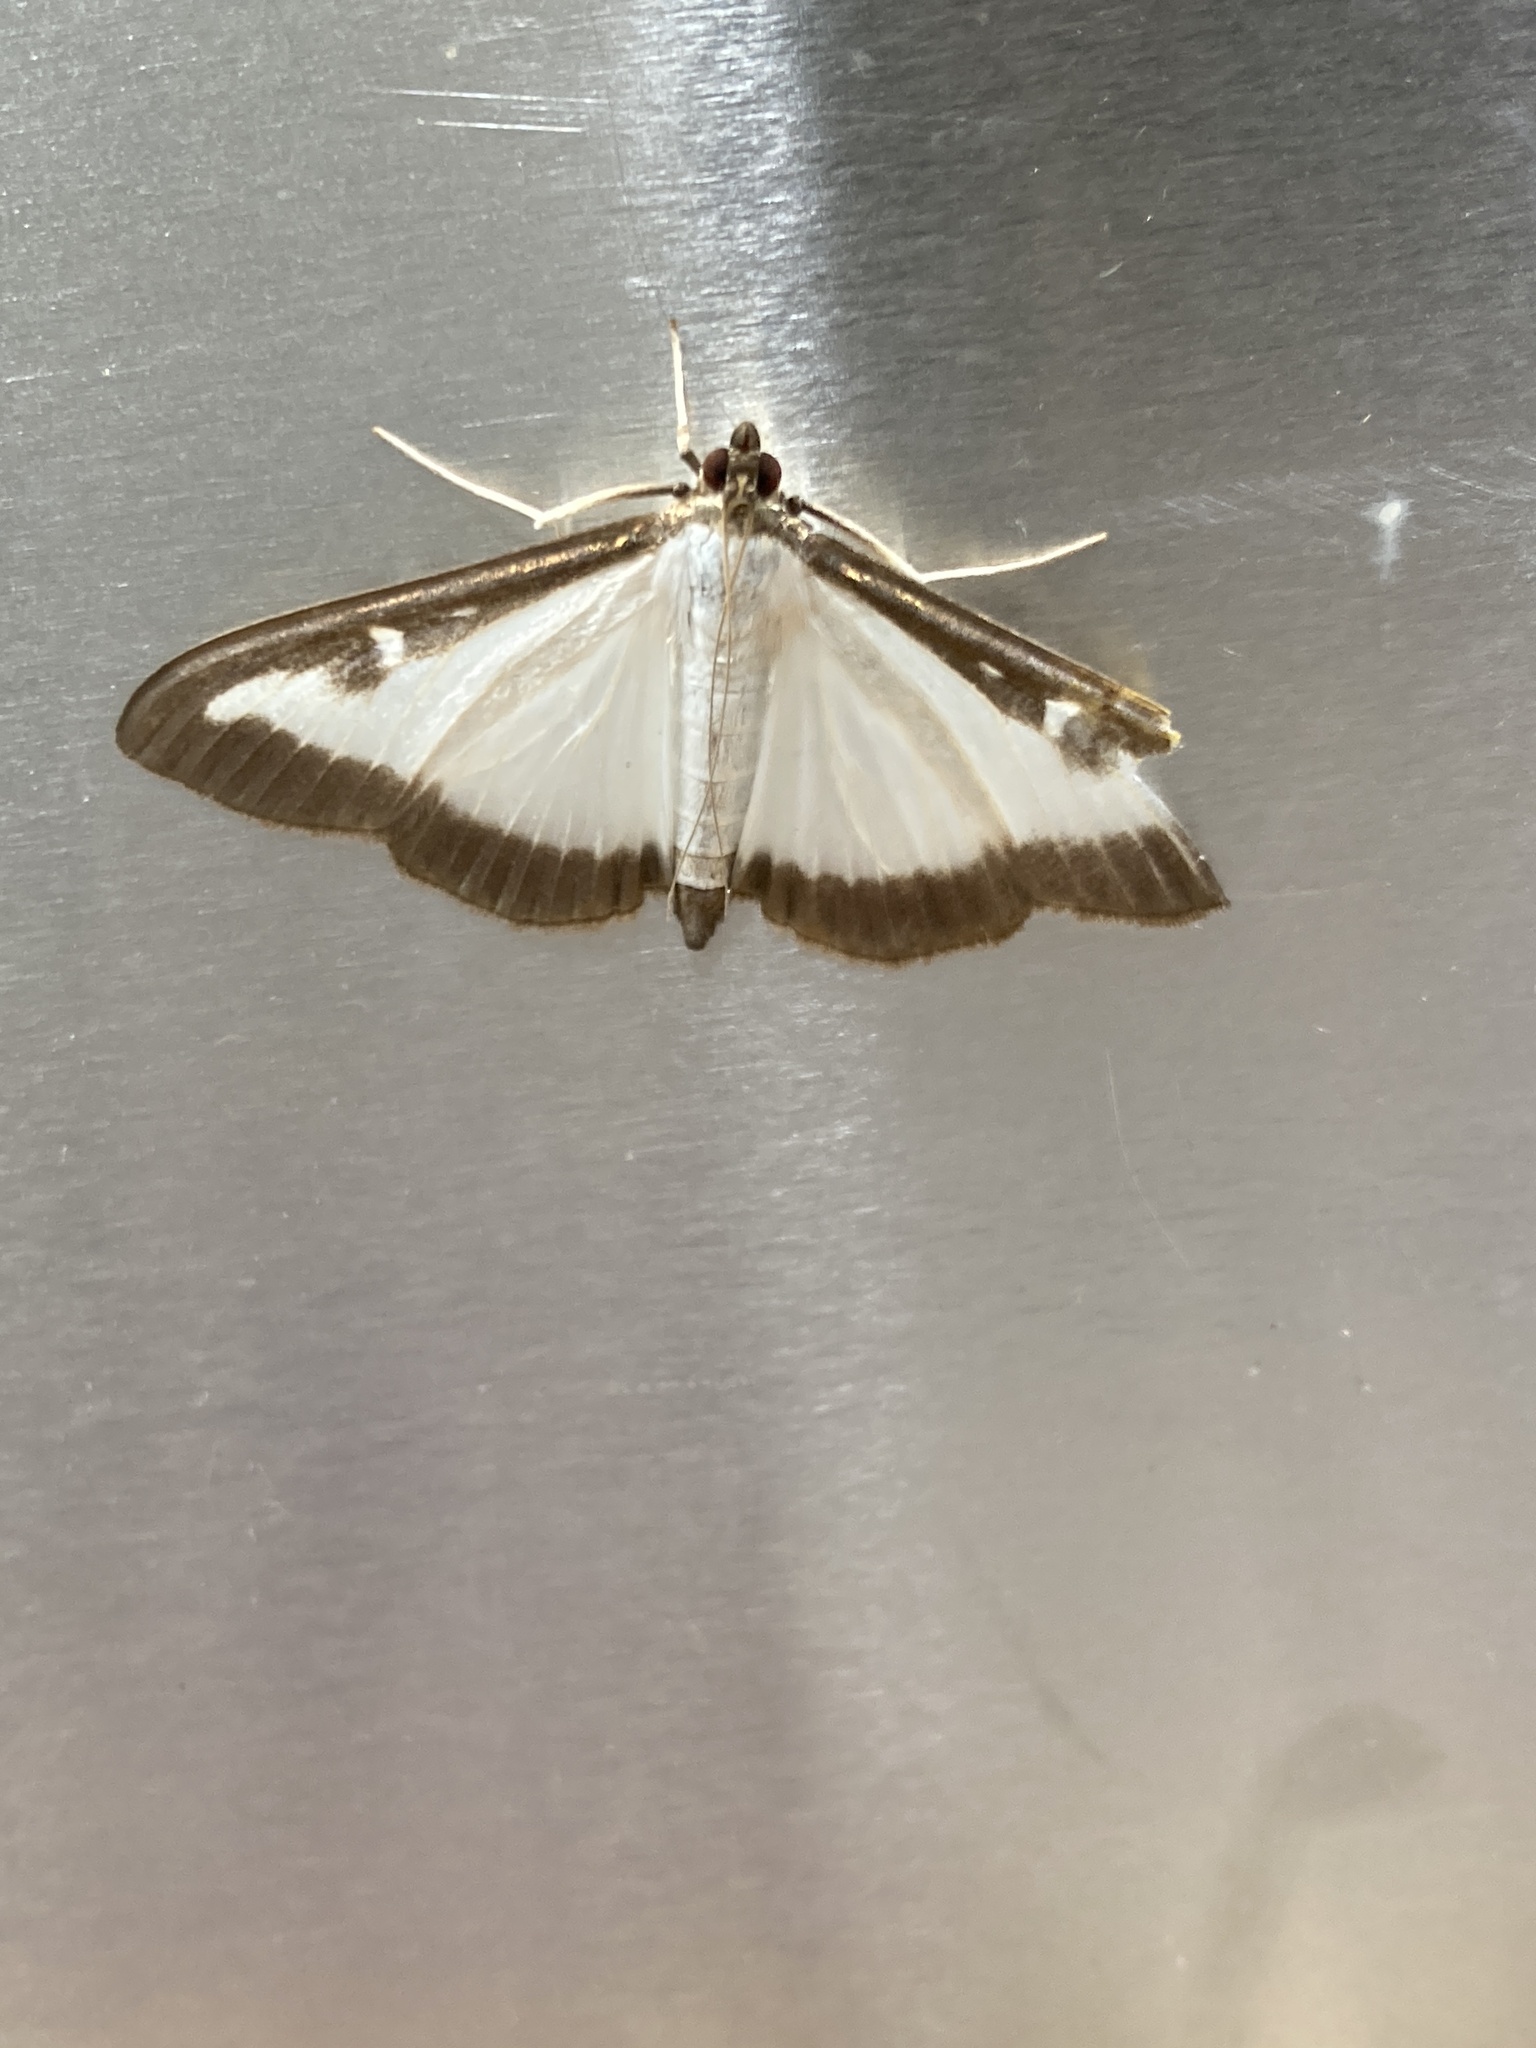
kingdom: Animalia
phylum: Arthropoda
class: Insecta
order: Lepidoptera
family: Crambidae
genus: Cydalima
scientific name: Cydalima perspectalis
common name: Box tree moth
